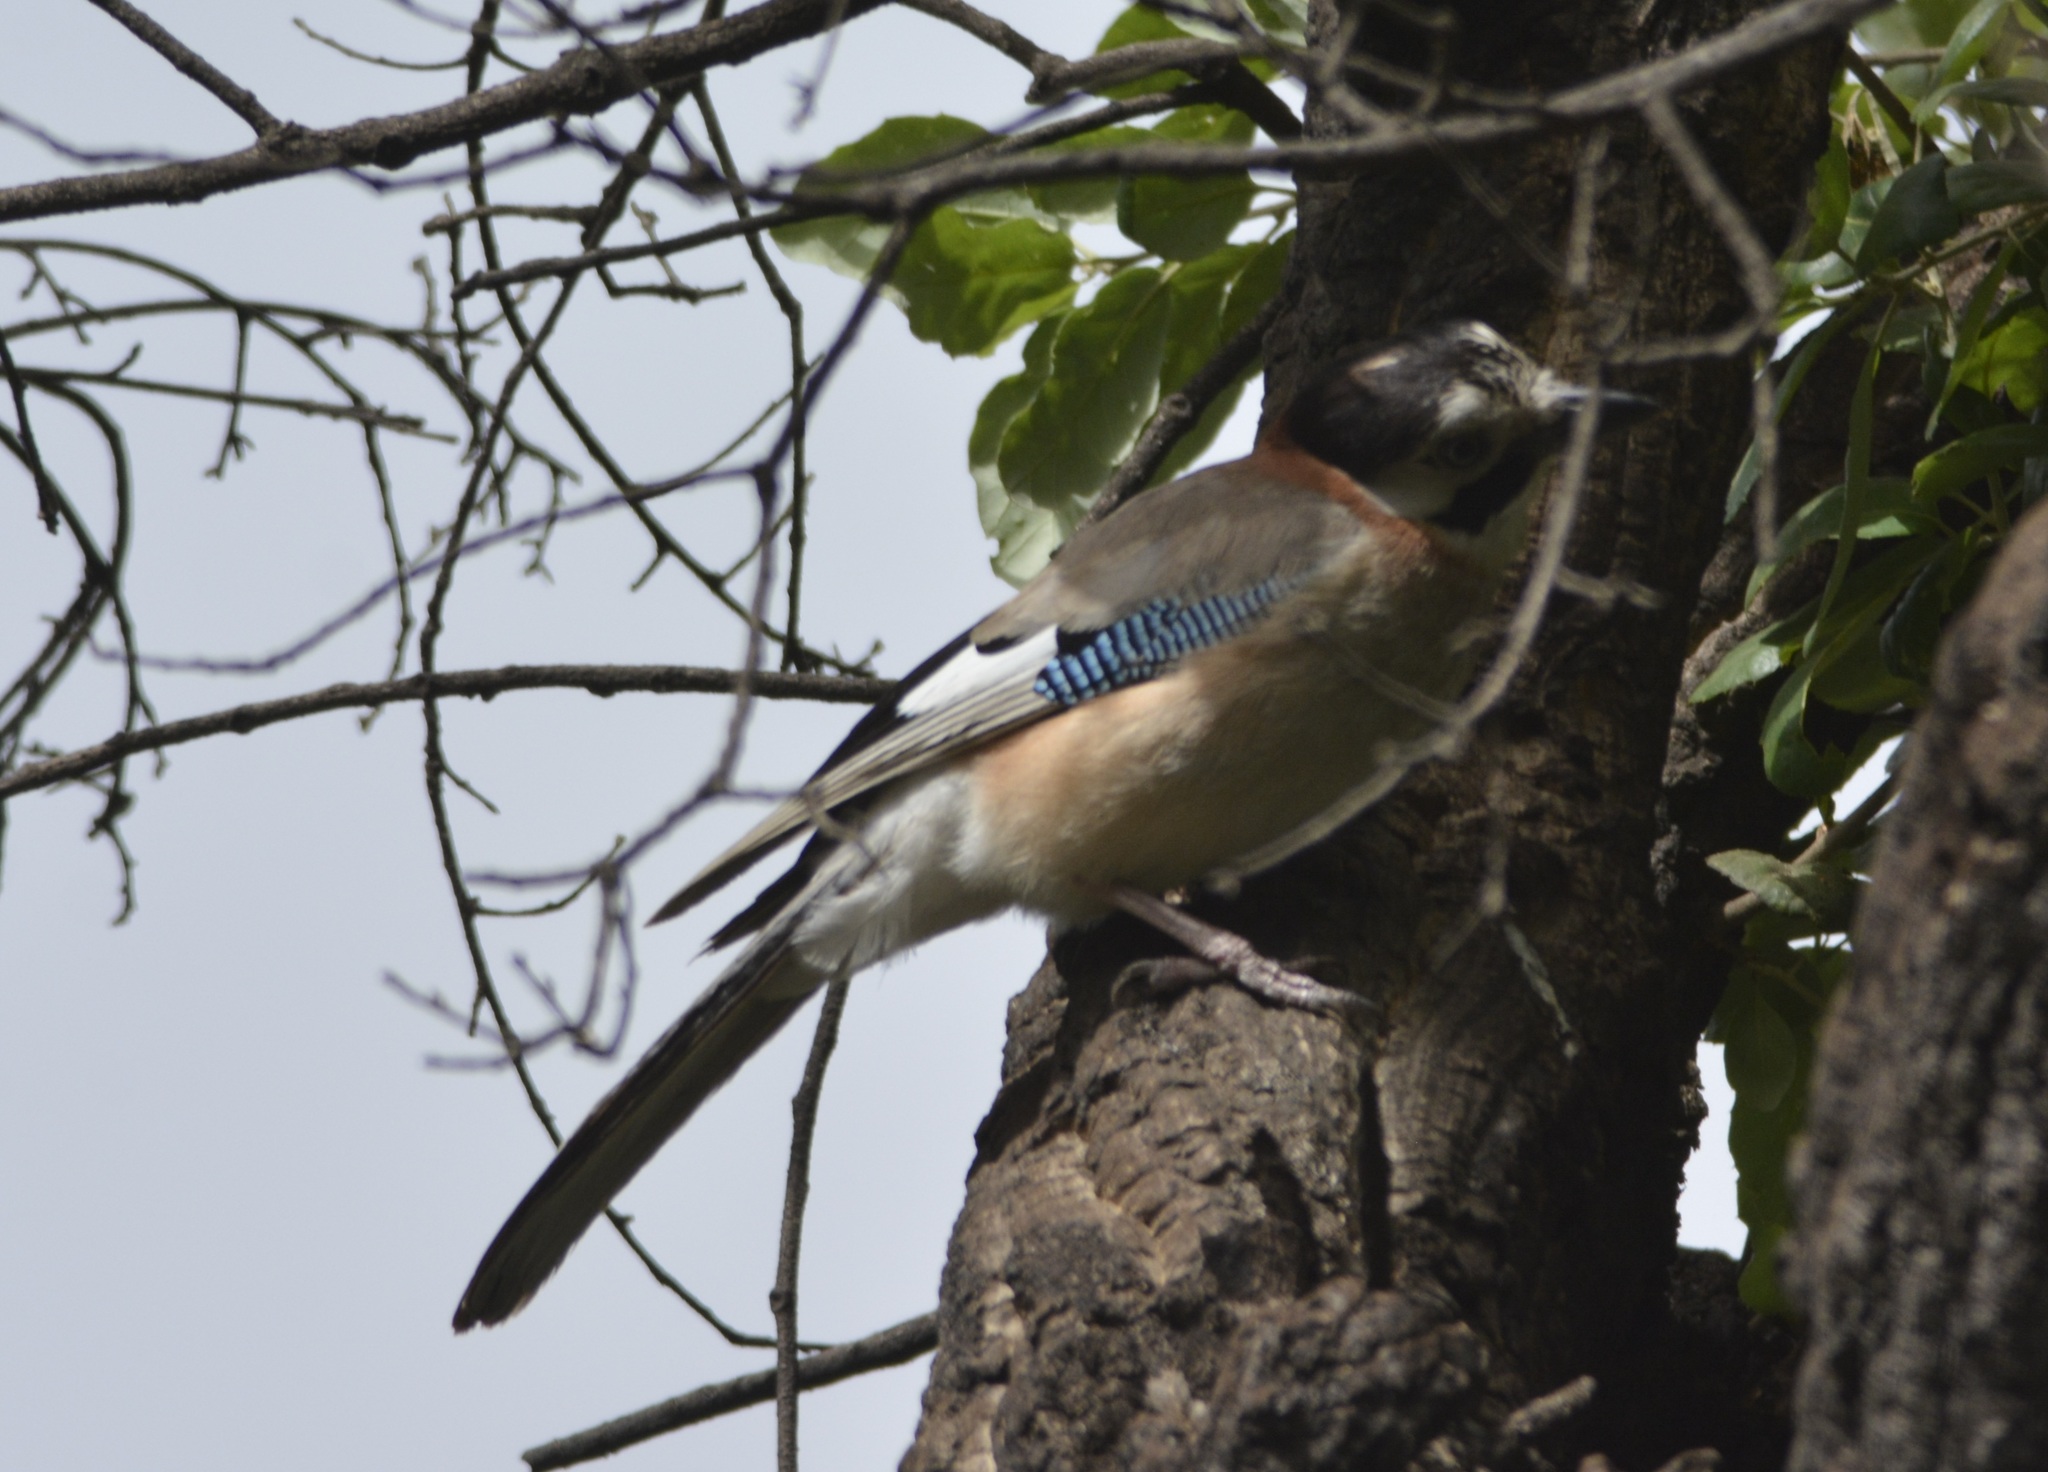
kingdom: Animalia
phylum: Chordata
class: Aves
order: Passeriformes
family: Corvidae
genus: Garrulus
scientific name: Garrulus glandarius
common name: Eurasian jay
